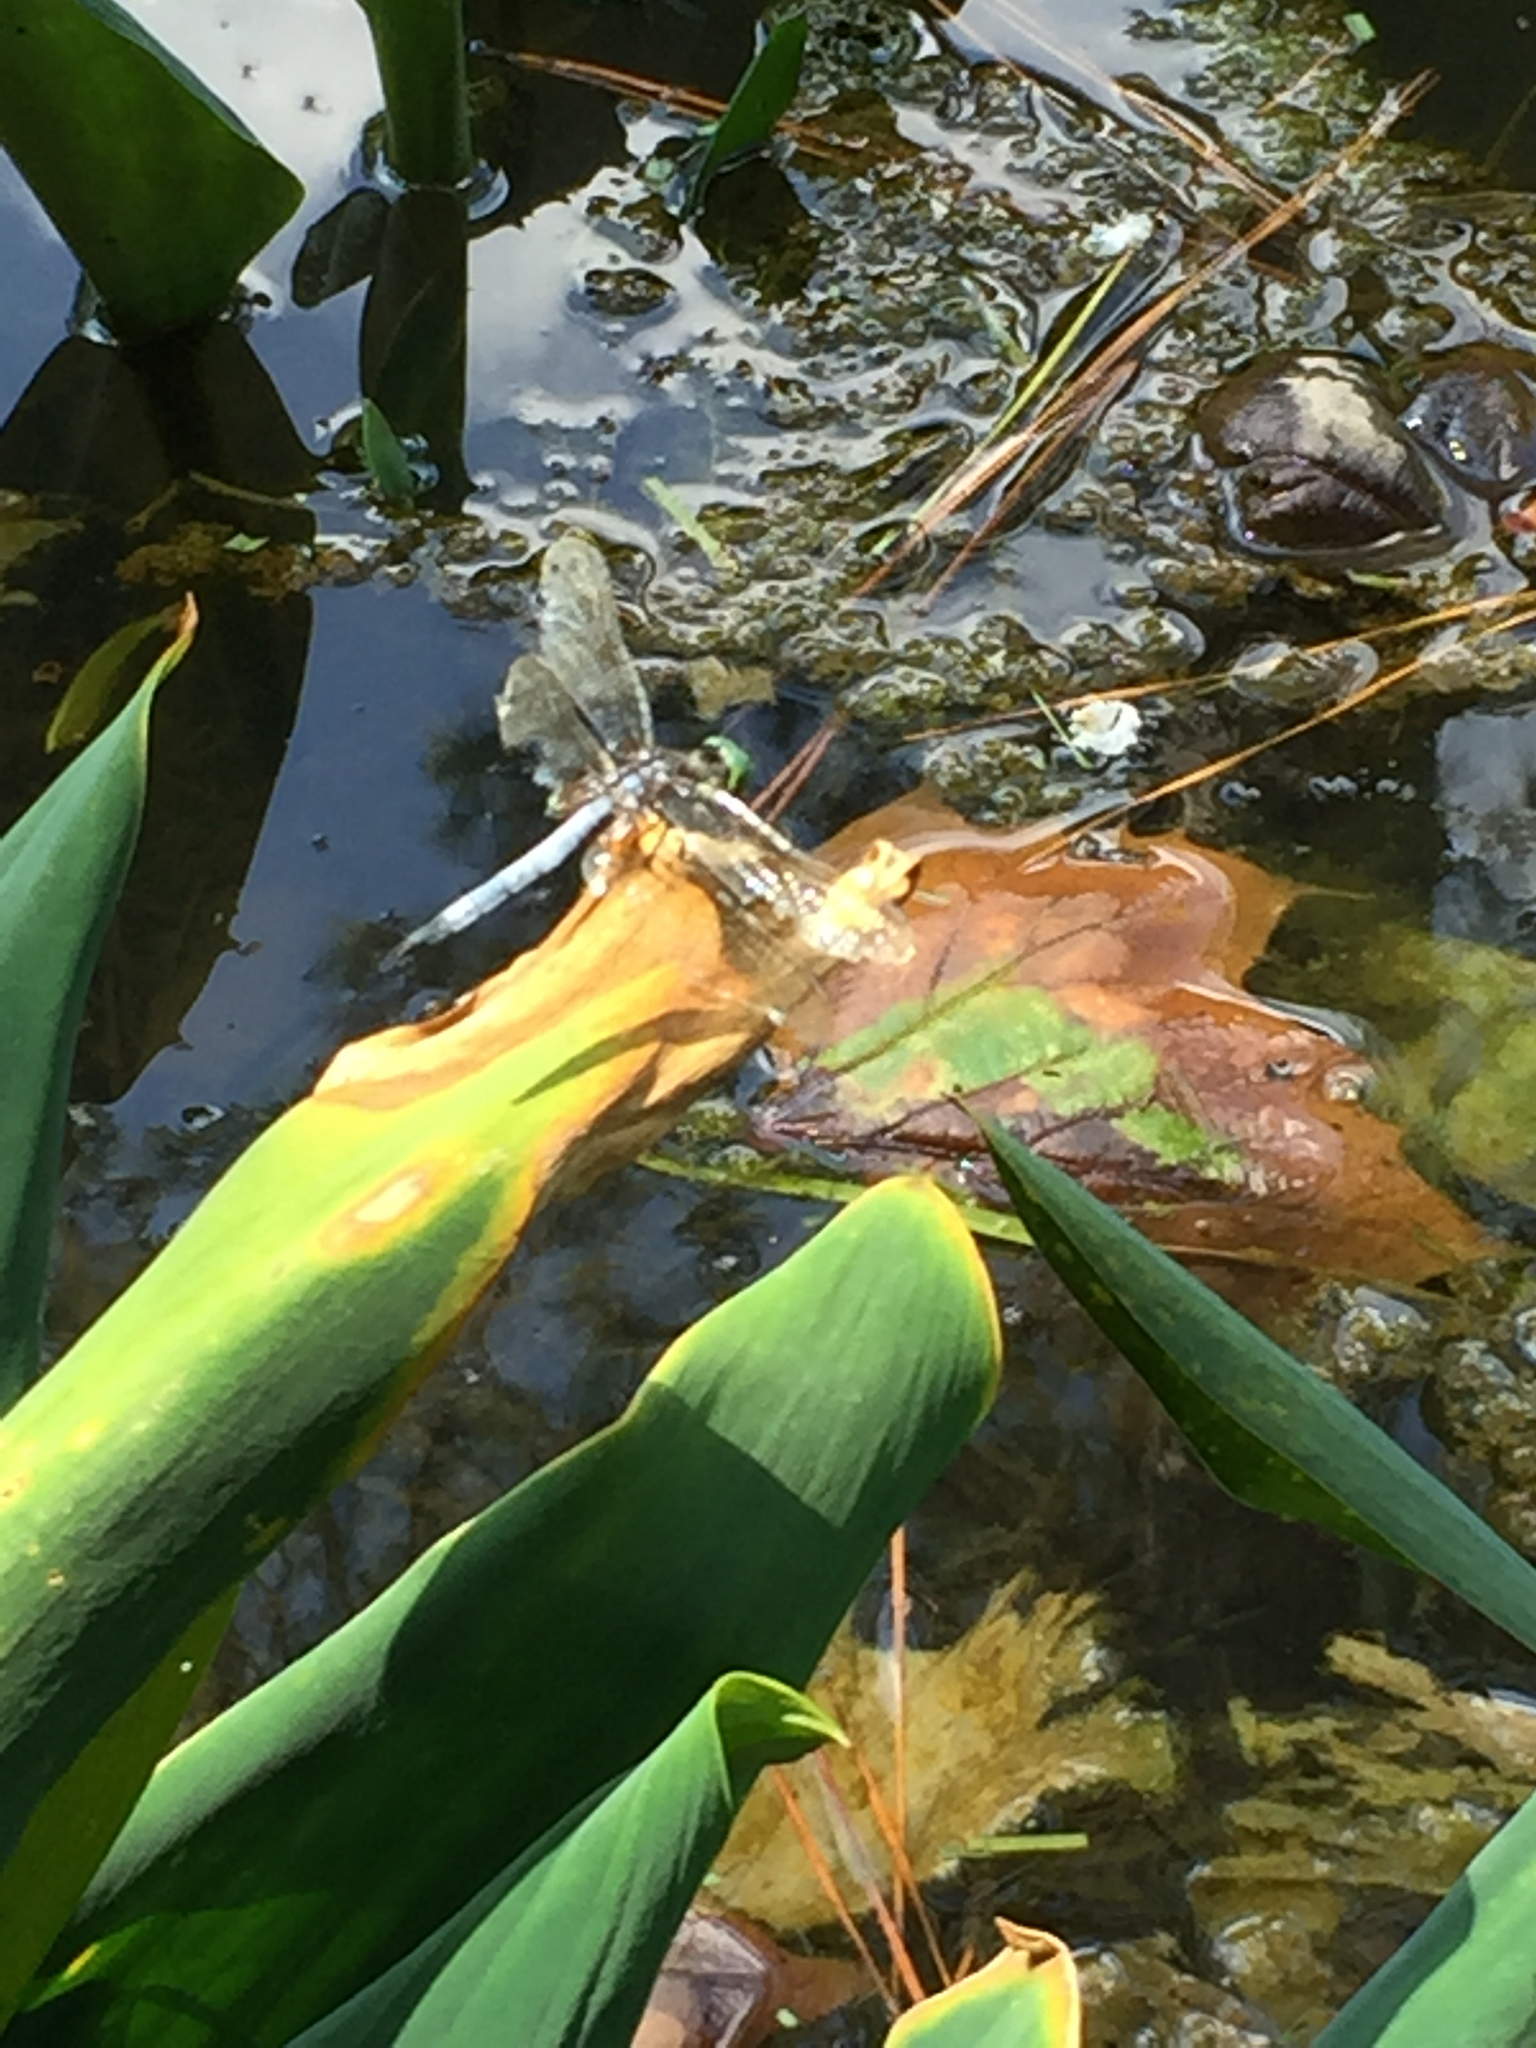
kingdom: Animalia
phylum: Arthropoda
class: Insecta
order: Odonata
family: Libellulidae
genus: Pachydiplax
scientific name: Pachydiplax longipennis
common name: Blue dasher
